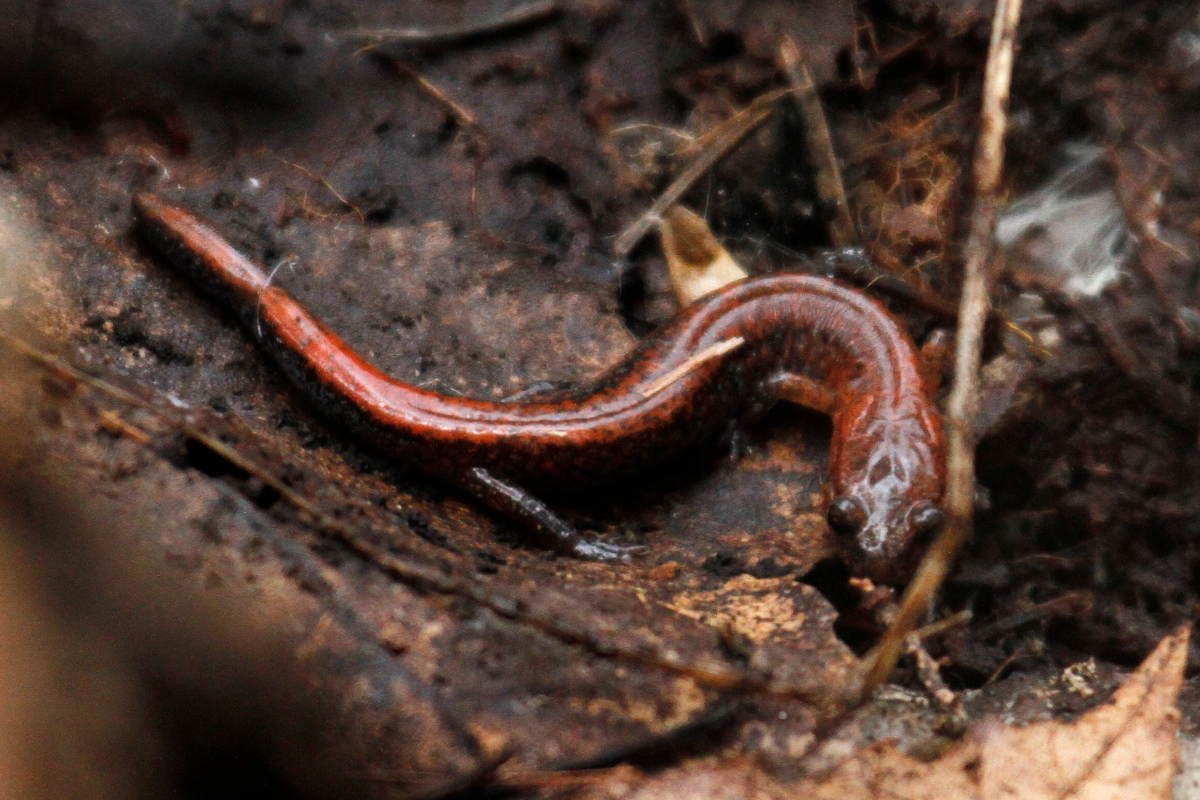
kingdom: Animalia
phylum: Chordata
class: Amphibia
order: Caudata
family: Plethodontidae
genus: Plethodon
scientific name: Plethodon cinereus
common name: Redback salamander
